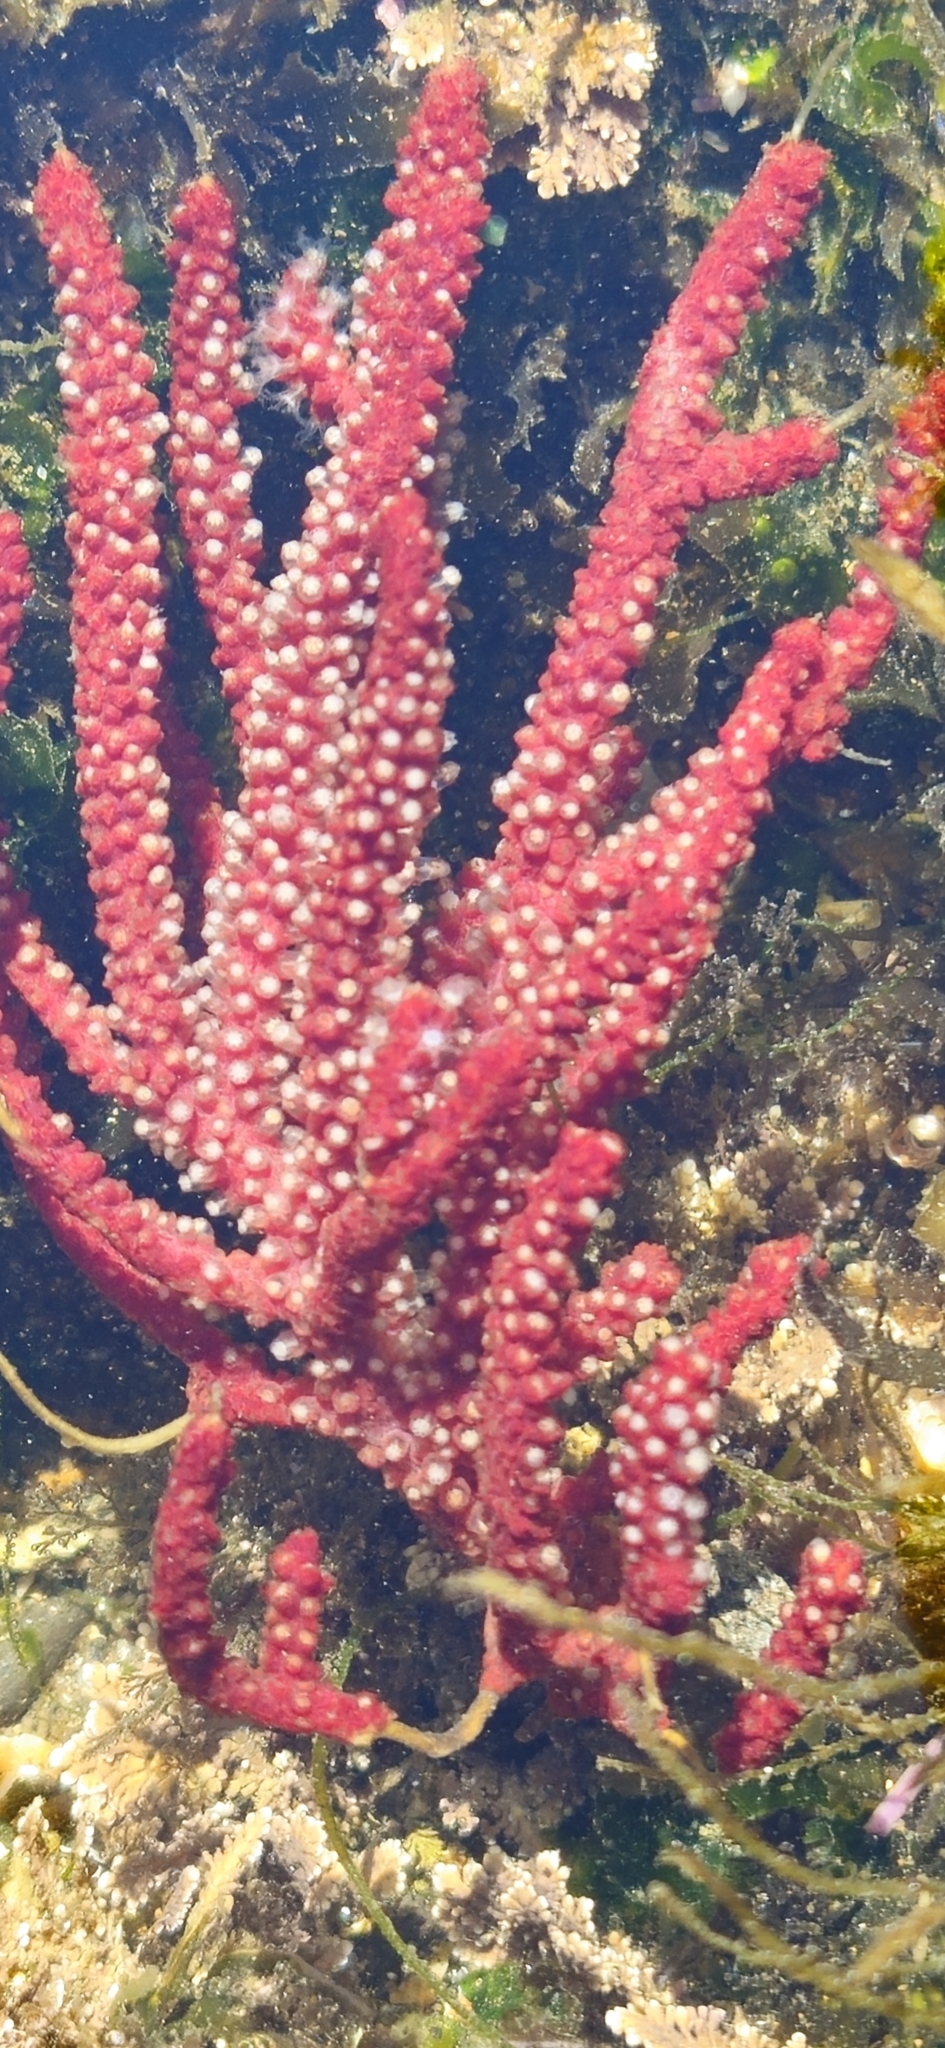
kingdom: Animalia
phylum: Cnidaria
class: Anthozoa
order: Malacalcyonacea
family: Plexauridae
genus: Muricea
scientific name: Muricea fruticosa
